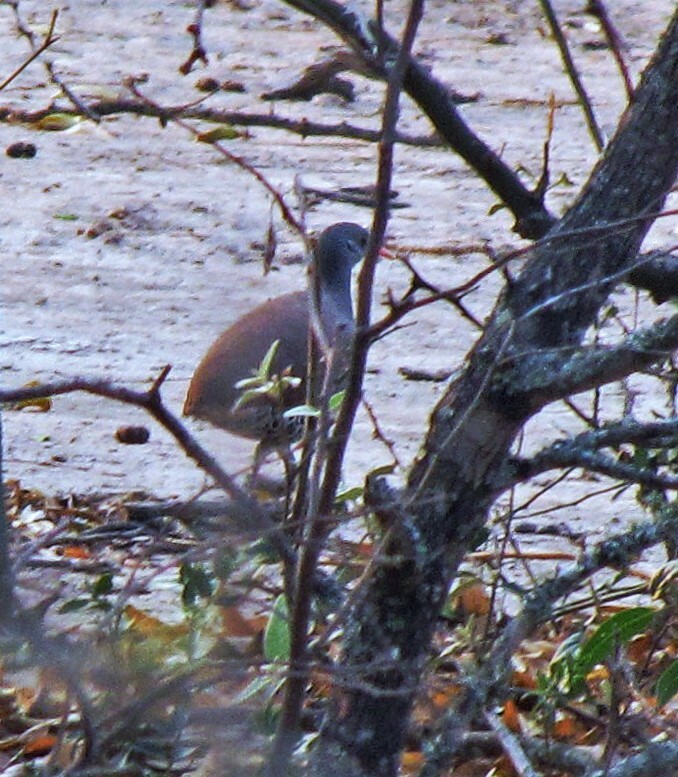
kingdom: Animalia
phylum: Chordata
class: Aves
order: Tinamiformes
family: Tinamidae
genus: Crypturellus
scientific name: Crypturellus tataupa
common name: Tataupa tinamou
